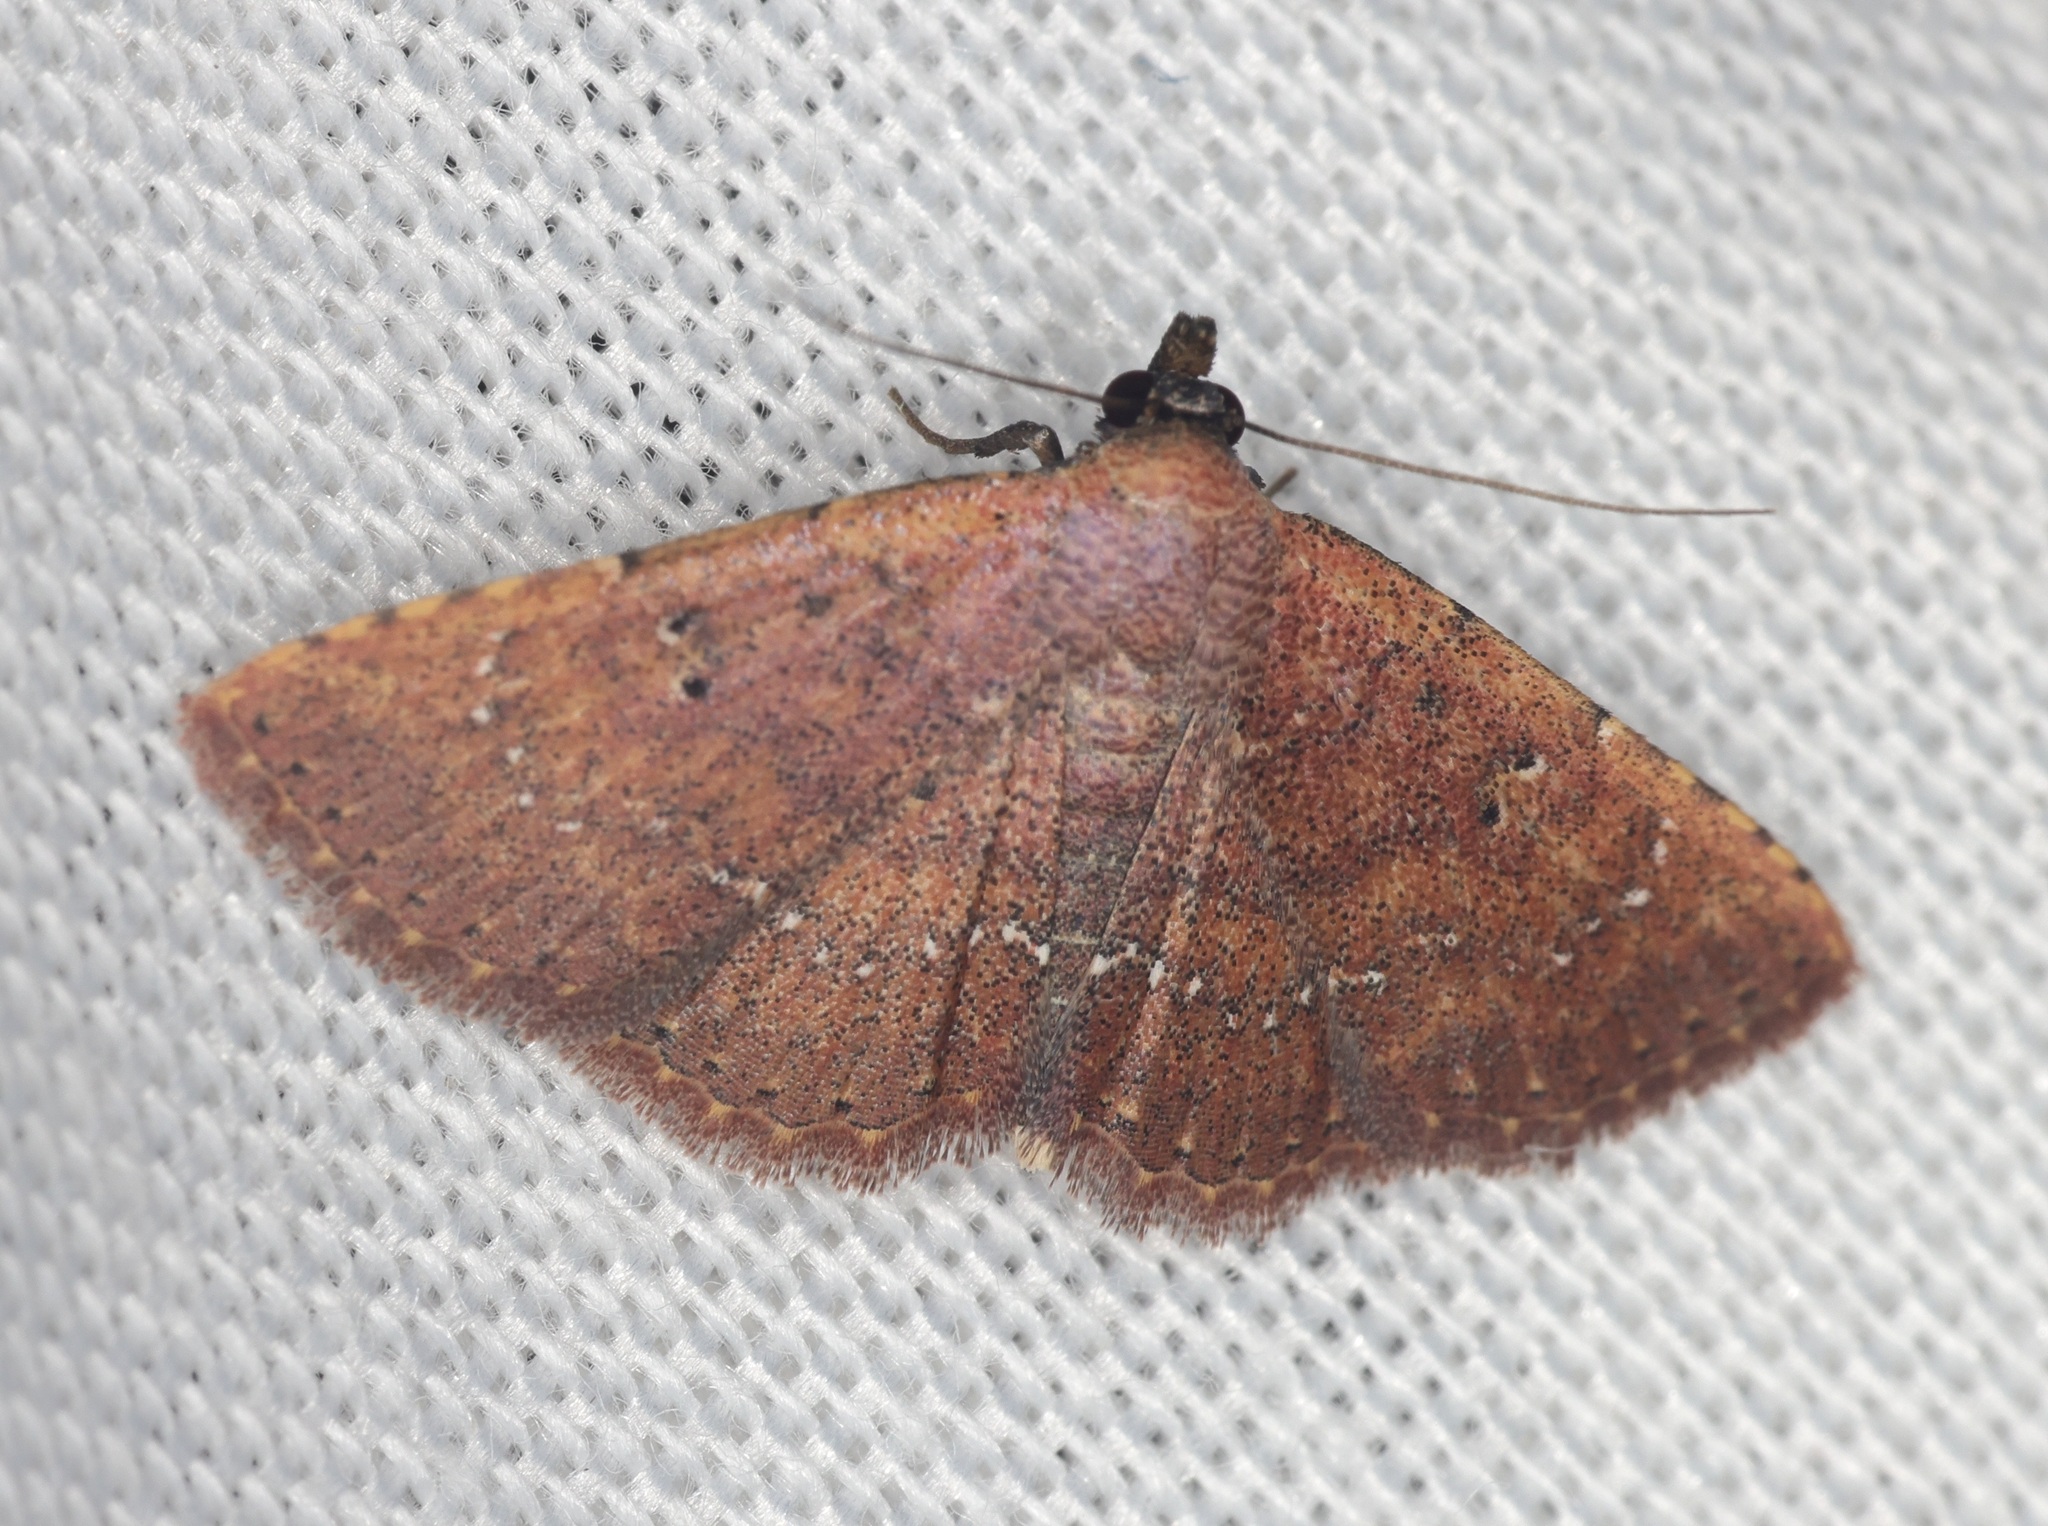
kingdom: Animalia
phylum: Arthropoda
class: Insecta
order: Lepidoptera
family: Noctuidae
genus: Cerynea
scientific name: Cerynea punctilinealis
